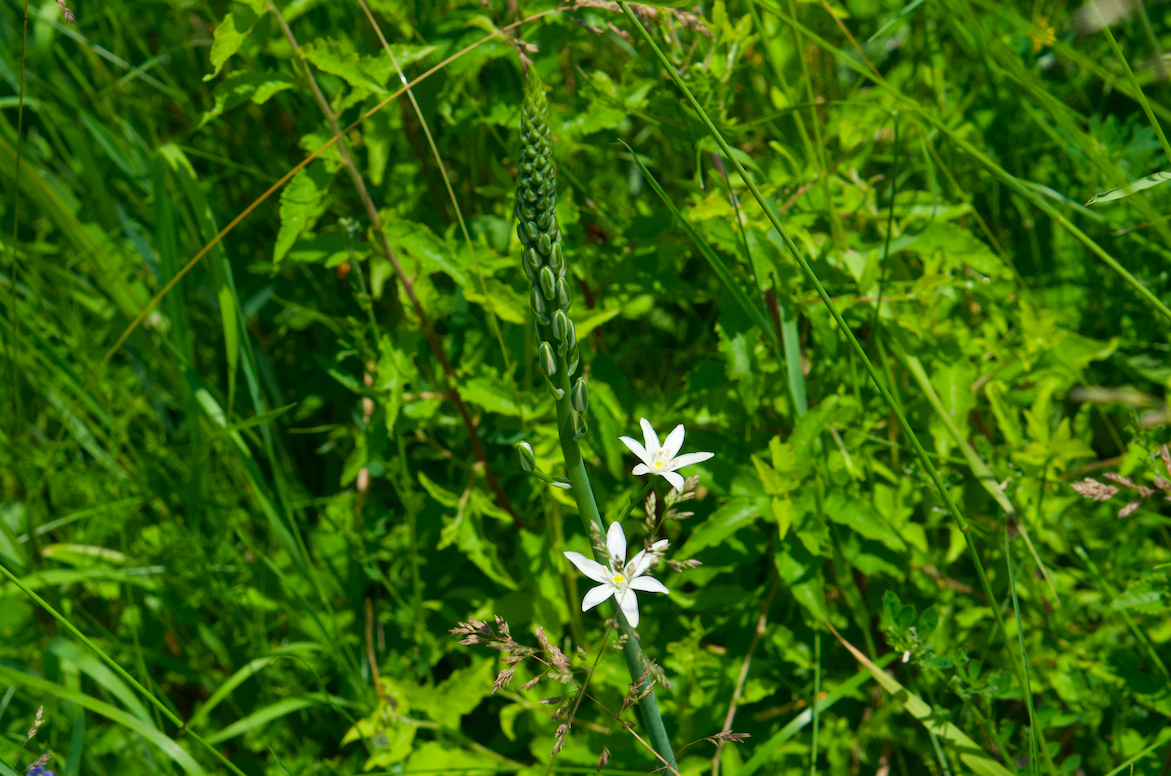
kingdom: Plantae
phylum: Tracheophyta
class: Liliopsida
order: Asparagales
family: Asparagaceae
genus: Ornithogalum
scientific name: Ornithogalum pyramidale
